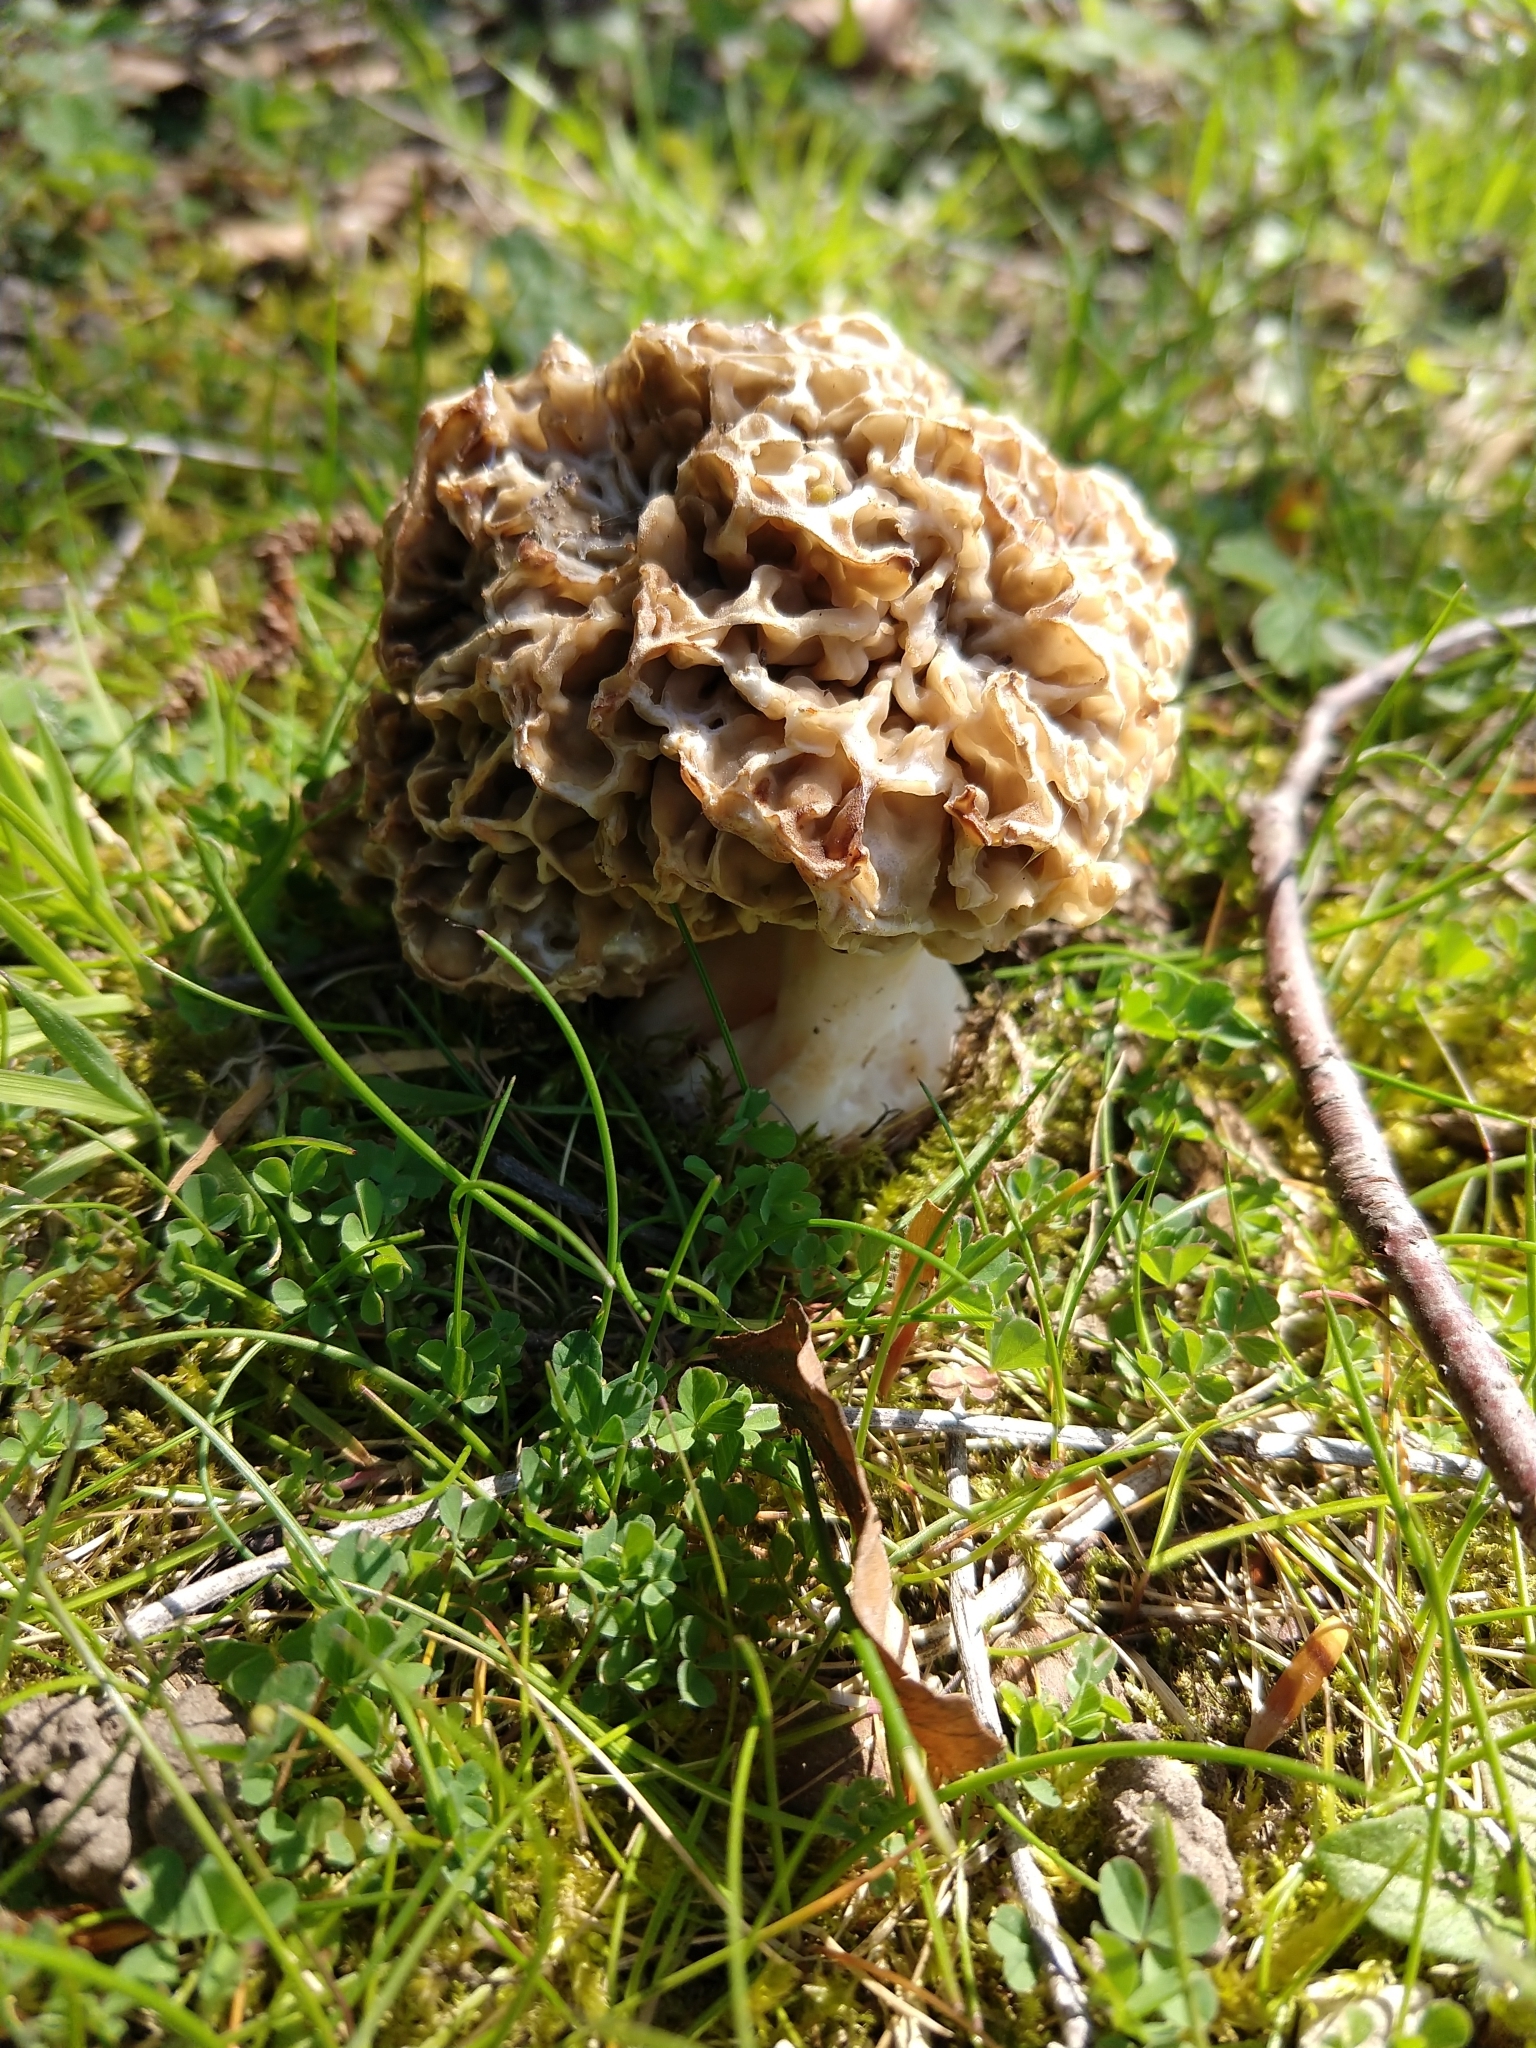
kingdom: Fungi
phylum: Ascomycota
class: Pezizomycetes
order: Pezizales
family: Morchellaceae
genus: Morchella
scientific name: Morchella esculenta
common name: Morel
